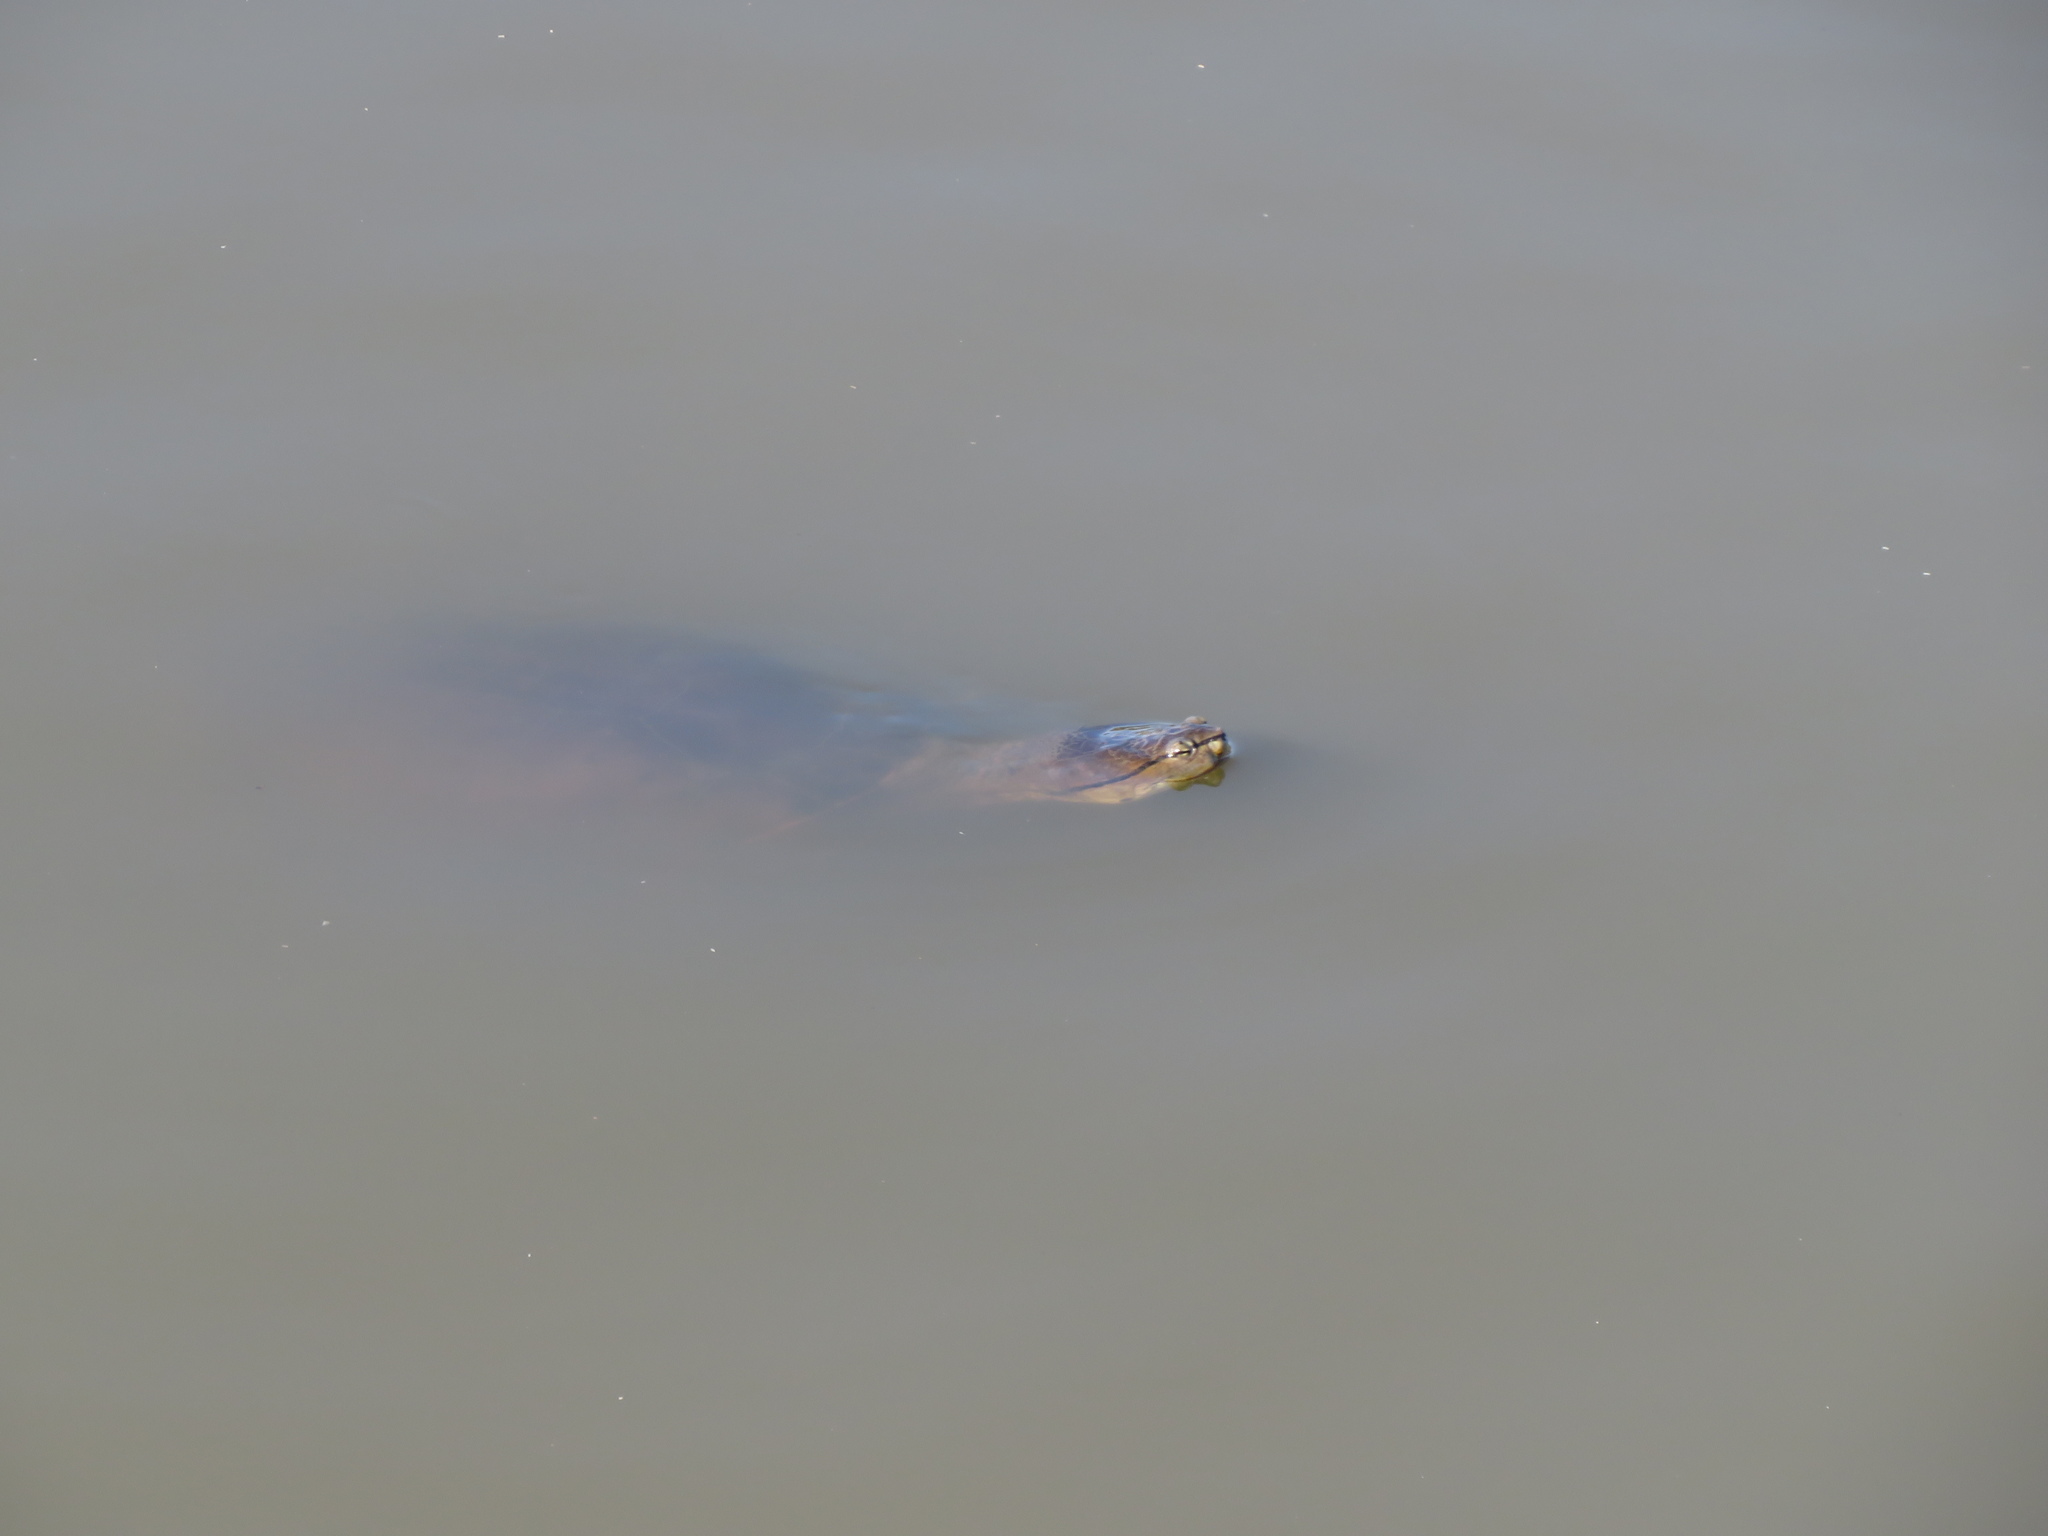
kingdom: Animalia
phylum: Chordata
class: Testudines
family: Chelidae
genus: Phrynops
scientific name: Phrynops hilarii
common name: Side-necked turtle of saint hillaire
